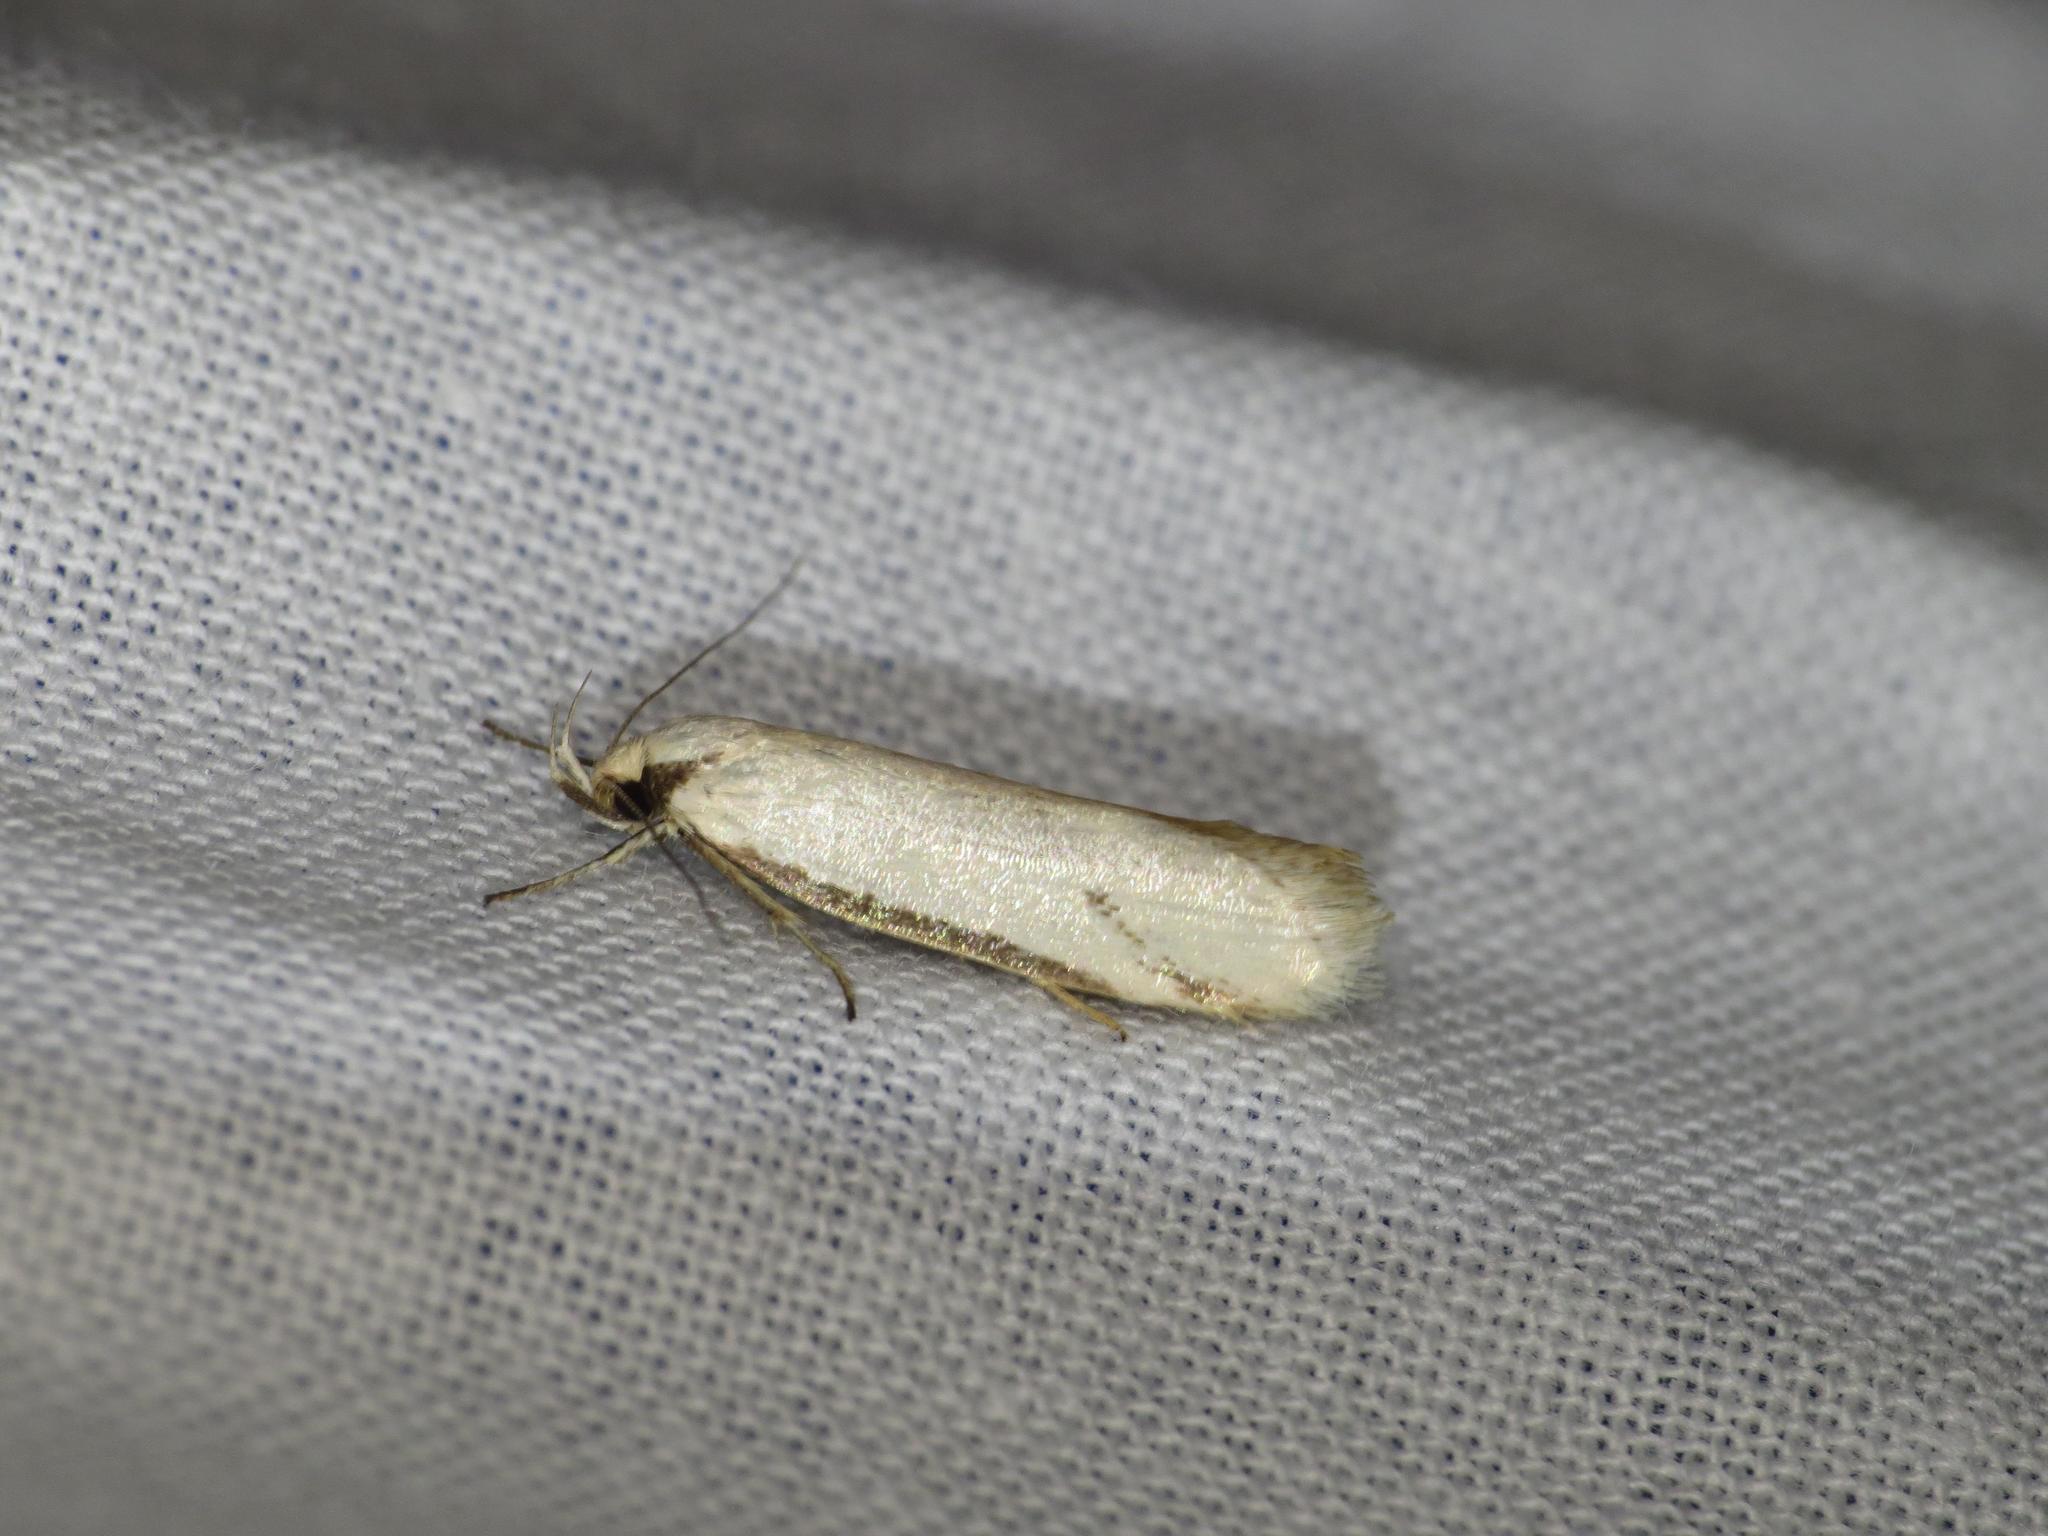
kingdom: Animalia
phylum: Arthropoda
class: Insecta
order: Lepidoptera
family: Oecophoridae
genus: Philobota
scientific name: Philobota latifissella
